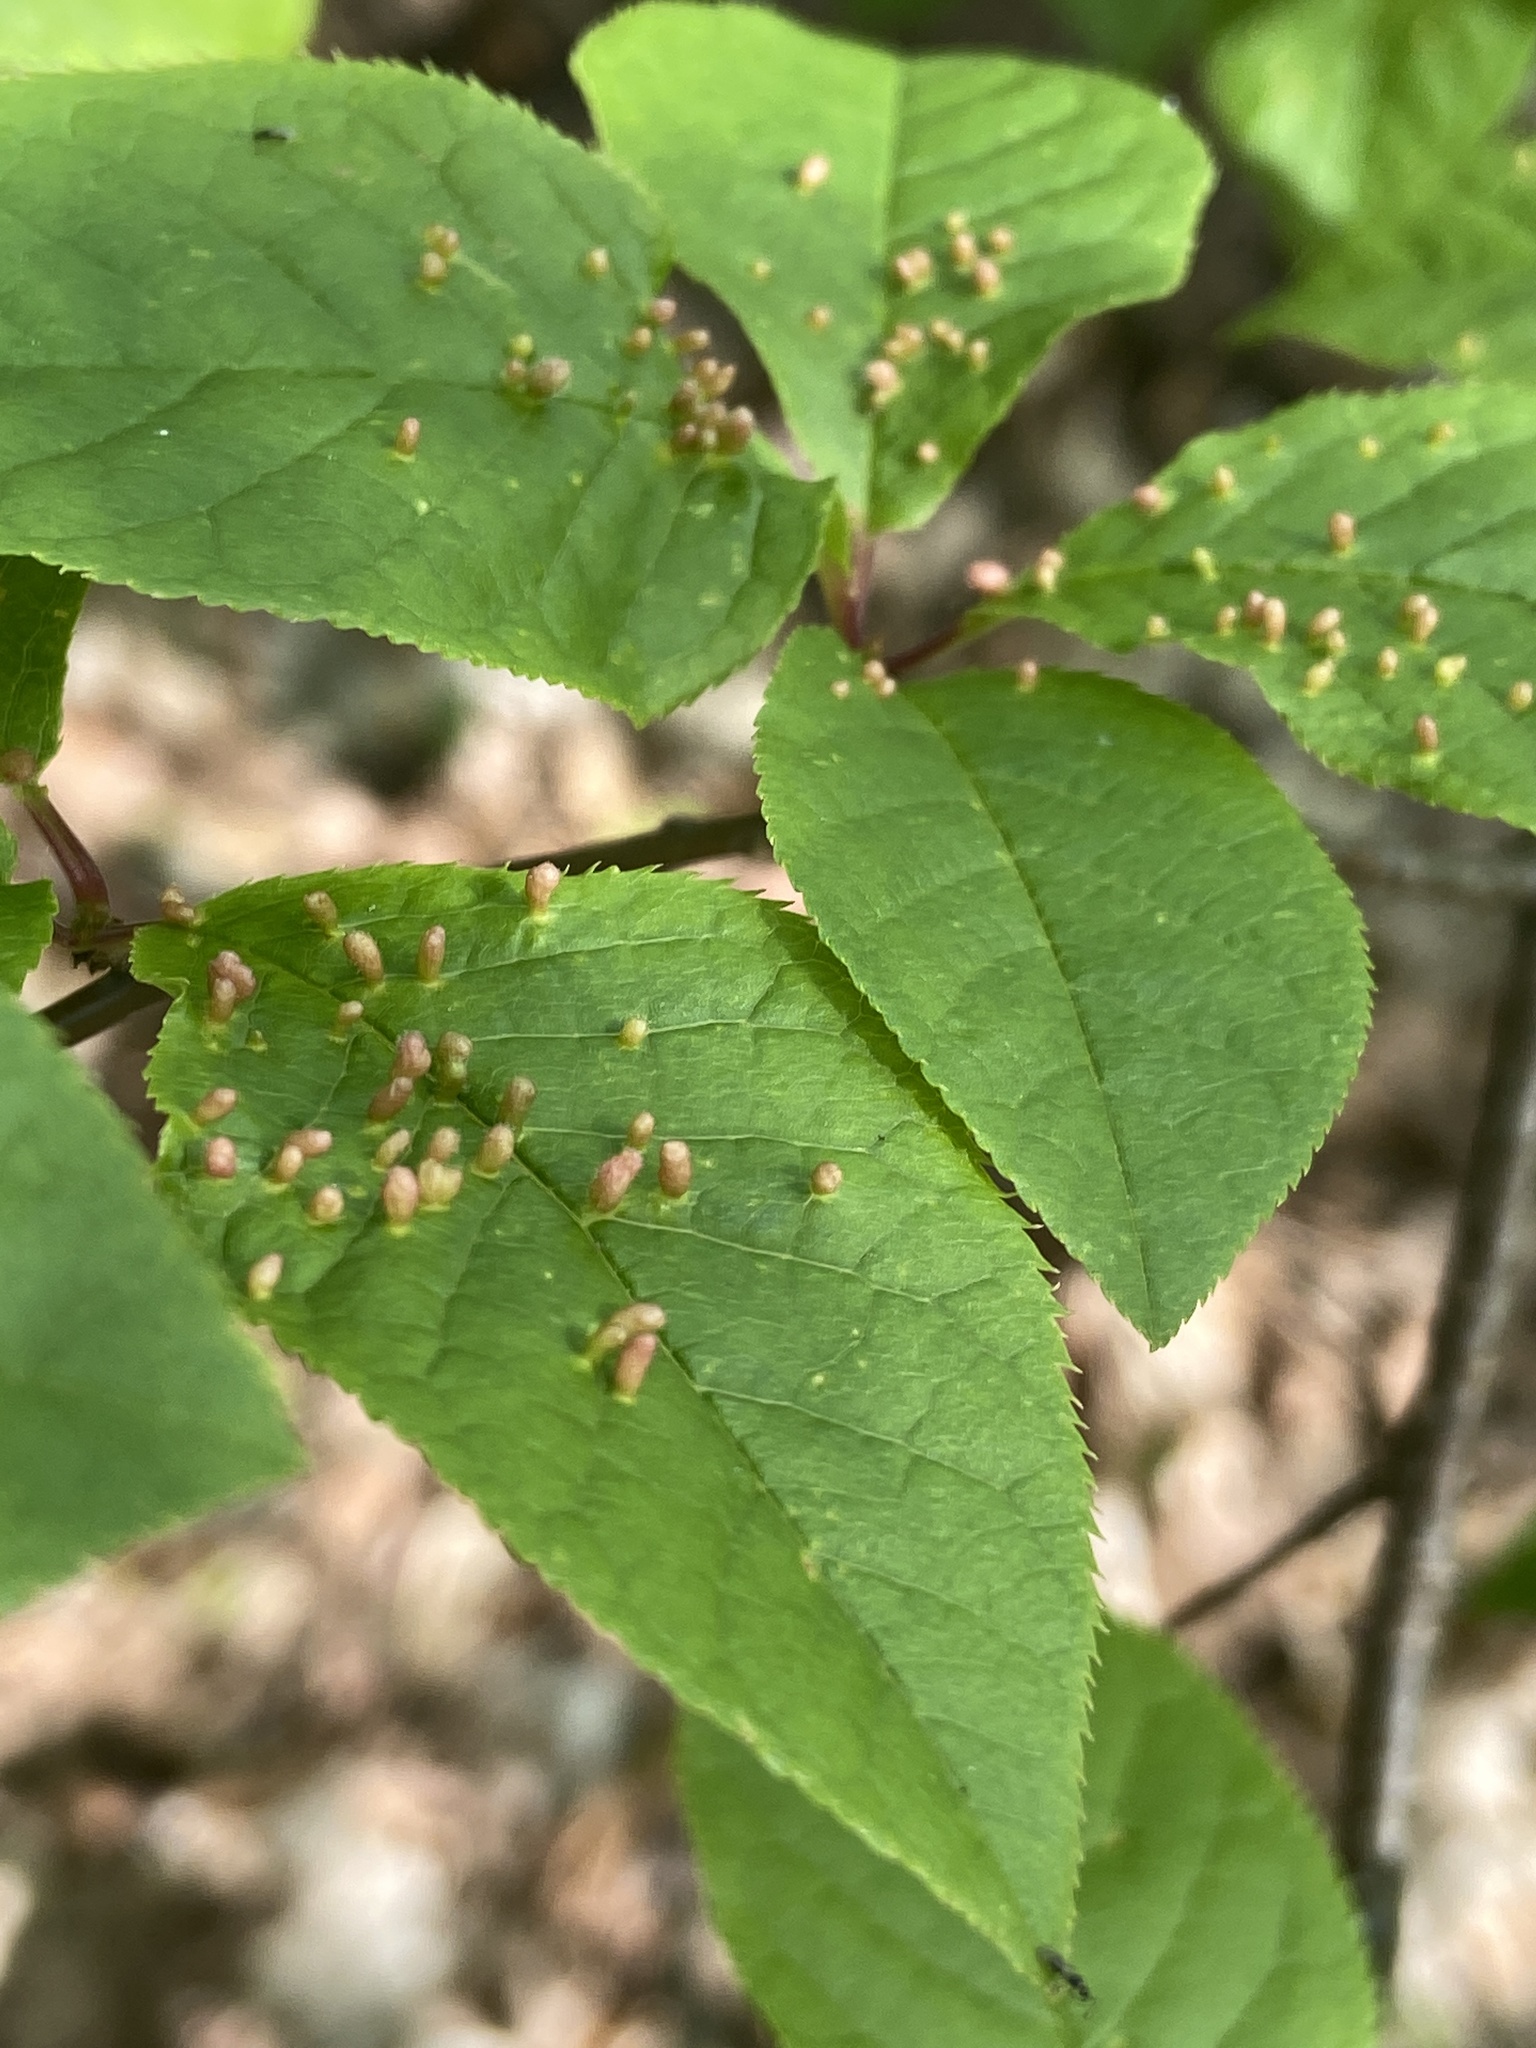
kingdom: Animalia
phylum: Arthropoda
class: Arachnida
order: Trombidiformes
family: Eriophyidae
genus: Phyllocoptes
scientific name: Phyllocoptes eupadi
